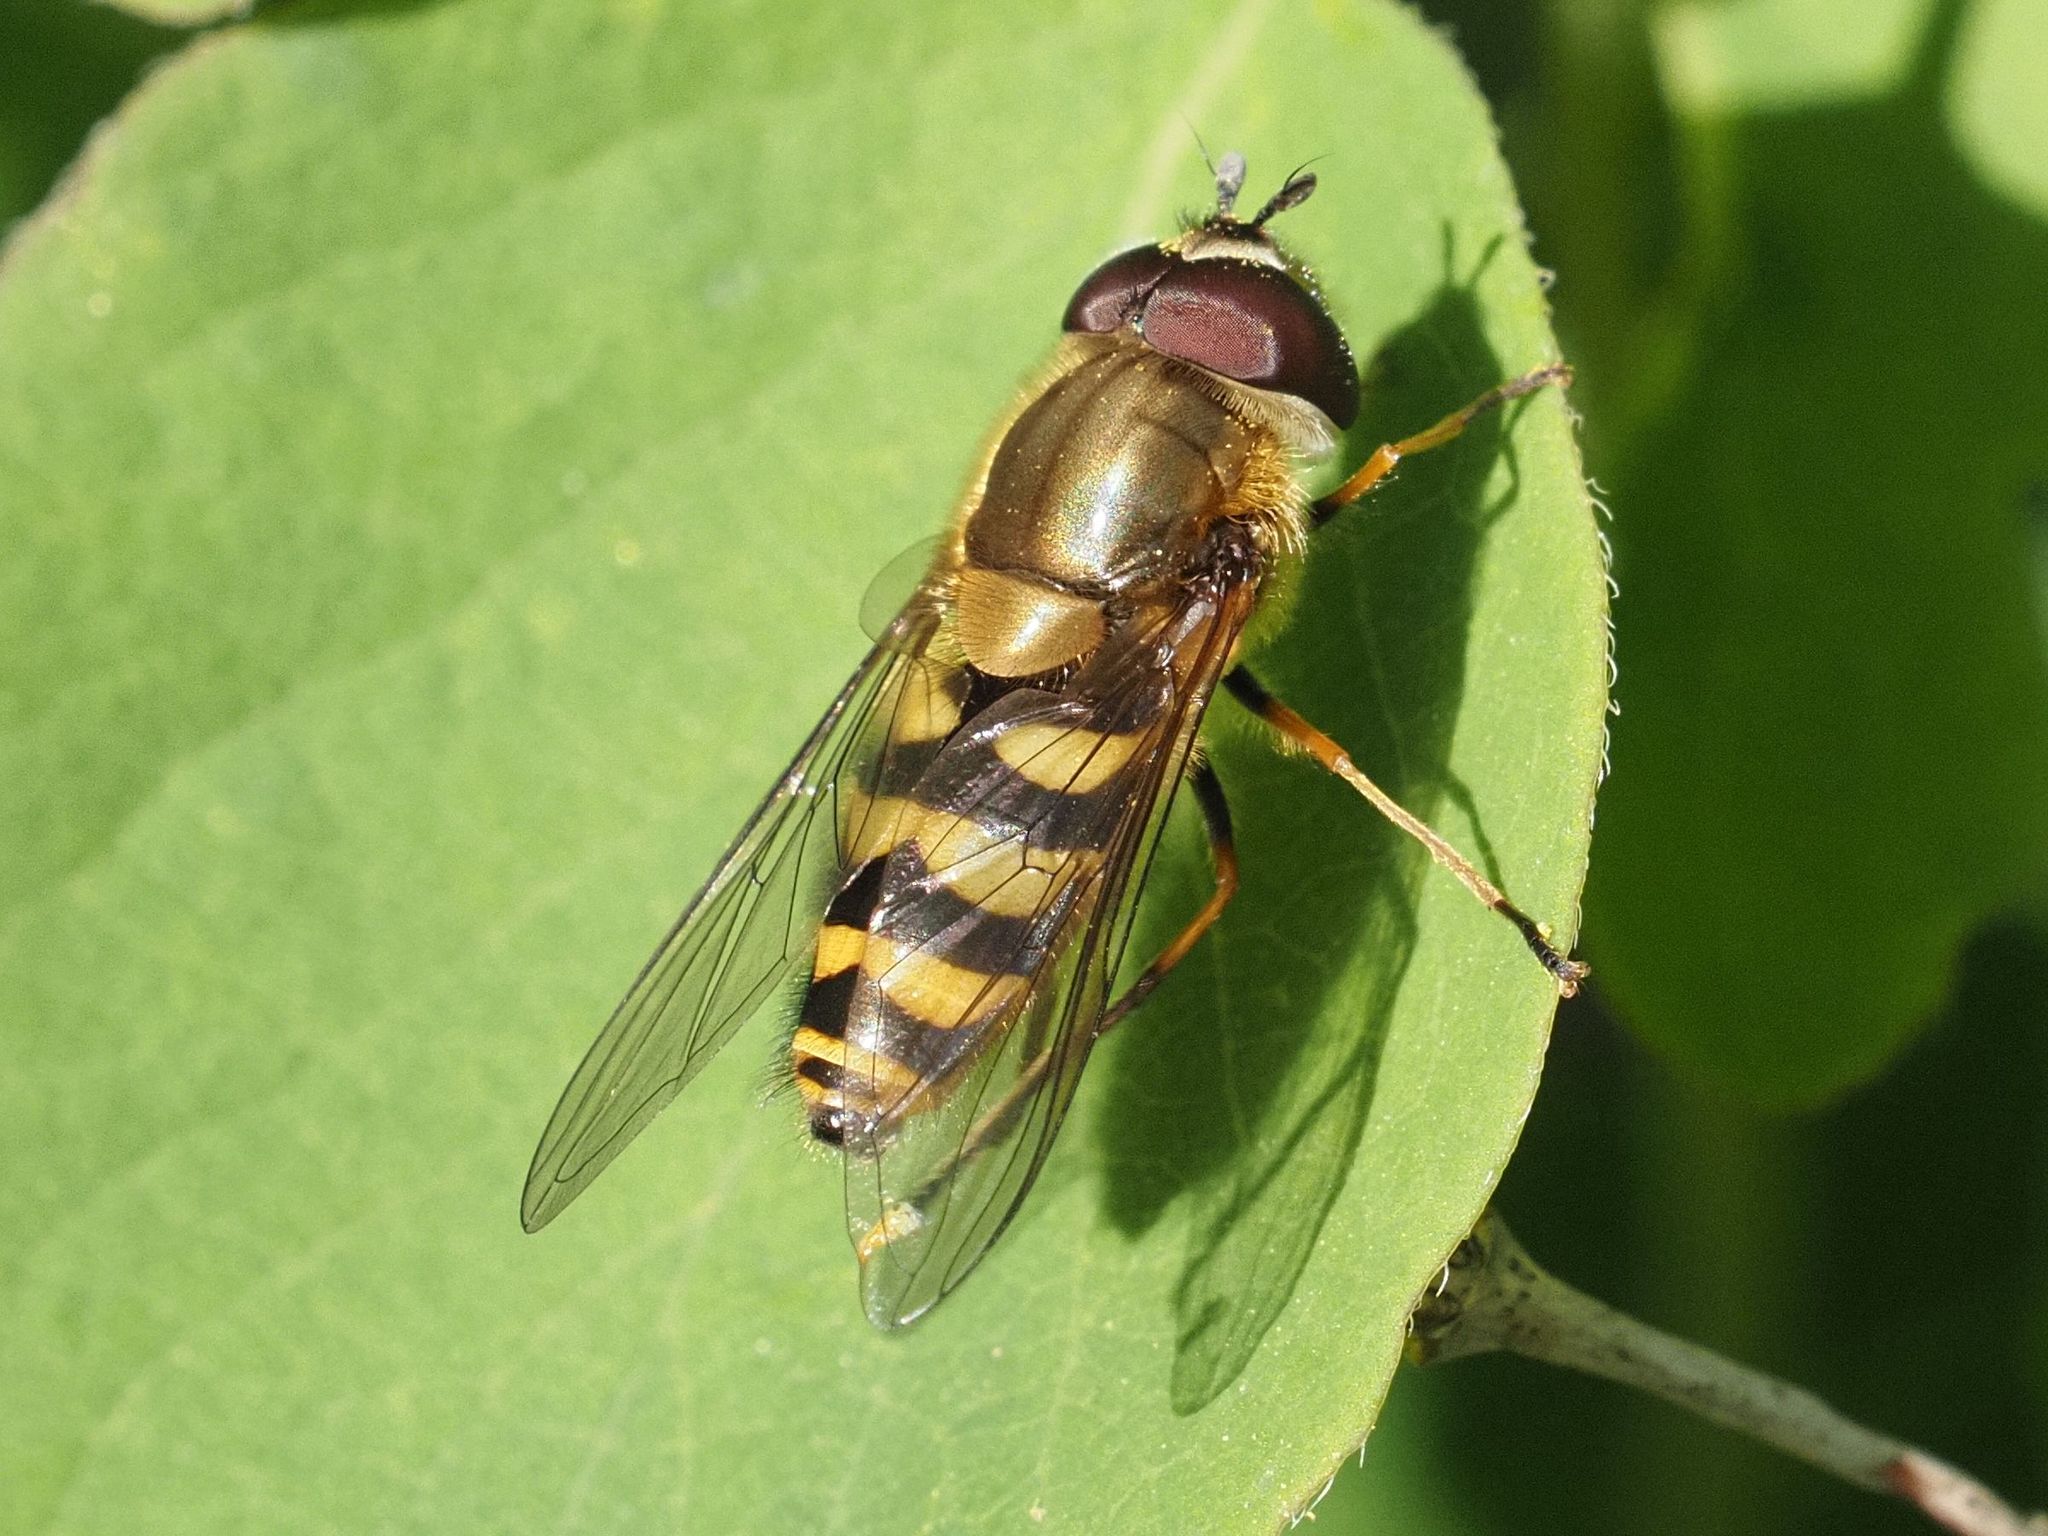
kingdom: Animalia
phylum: Arthropoda
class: Insecta
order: Diptera
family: Syrphidae
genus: Syrphus
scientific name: Syrphus torvus
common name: Hairy-eyed flower fly
